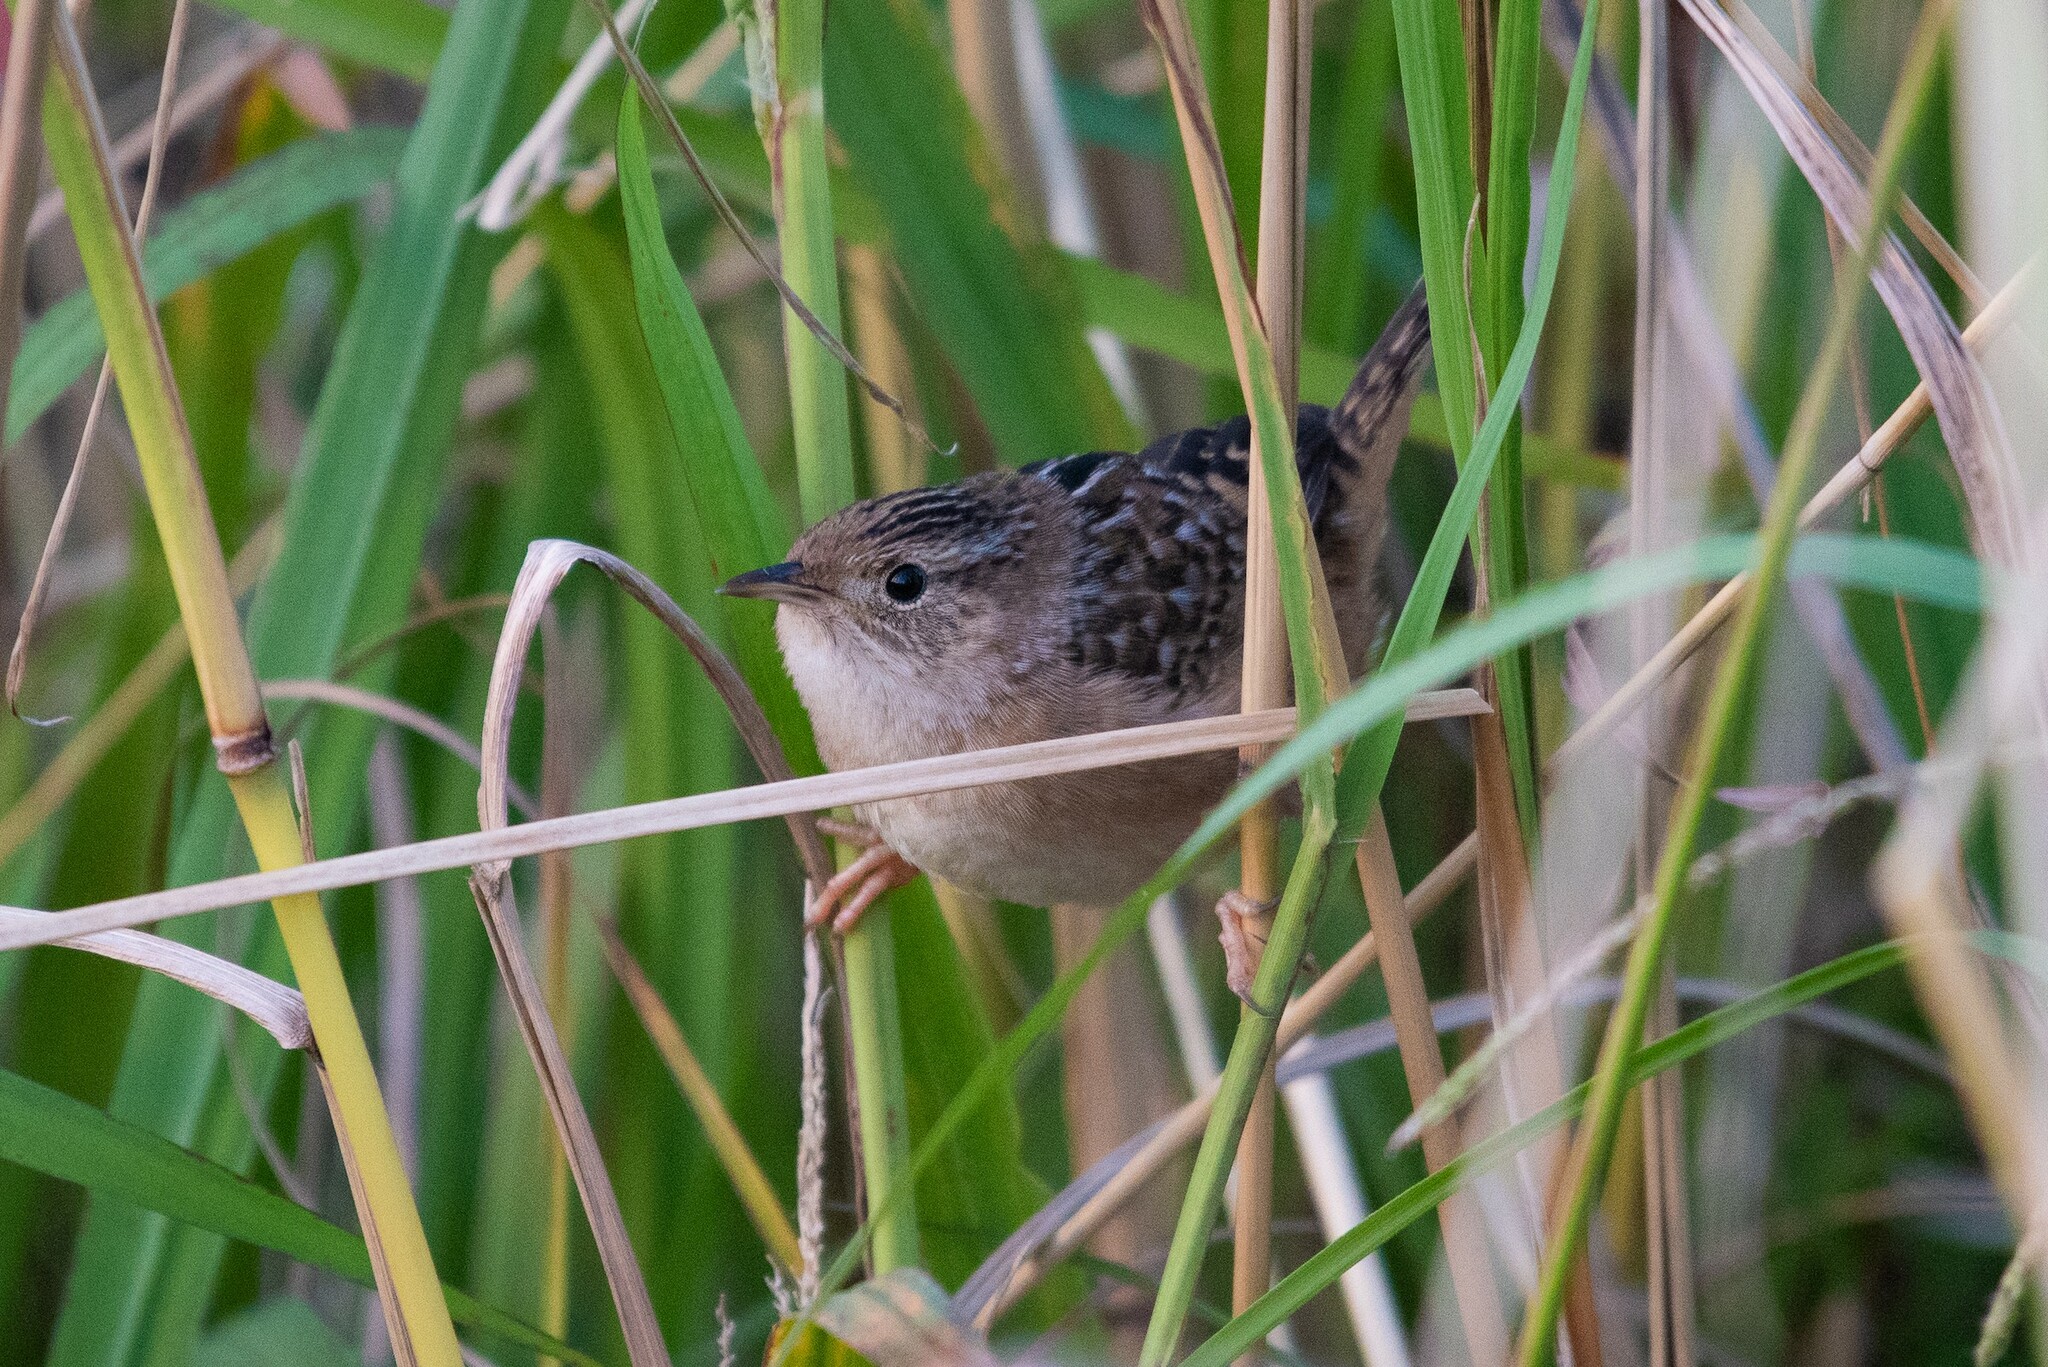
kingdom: Animalia
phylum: Chordata
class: Aves
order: Passeriformes
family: Troglodytidae
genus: Cistothorus
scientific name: Cistothorus platensis
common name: Sedge wren
